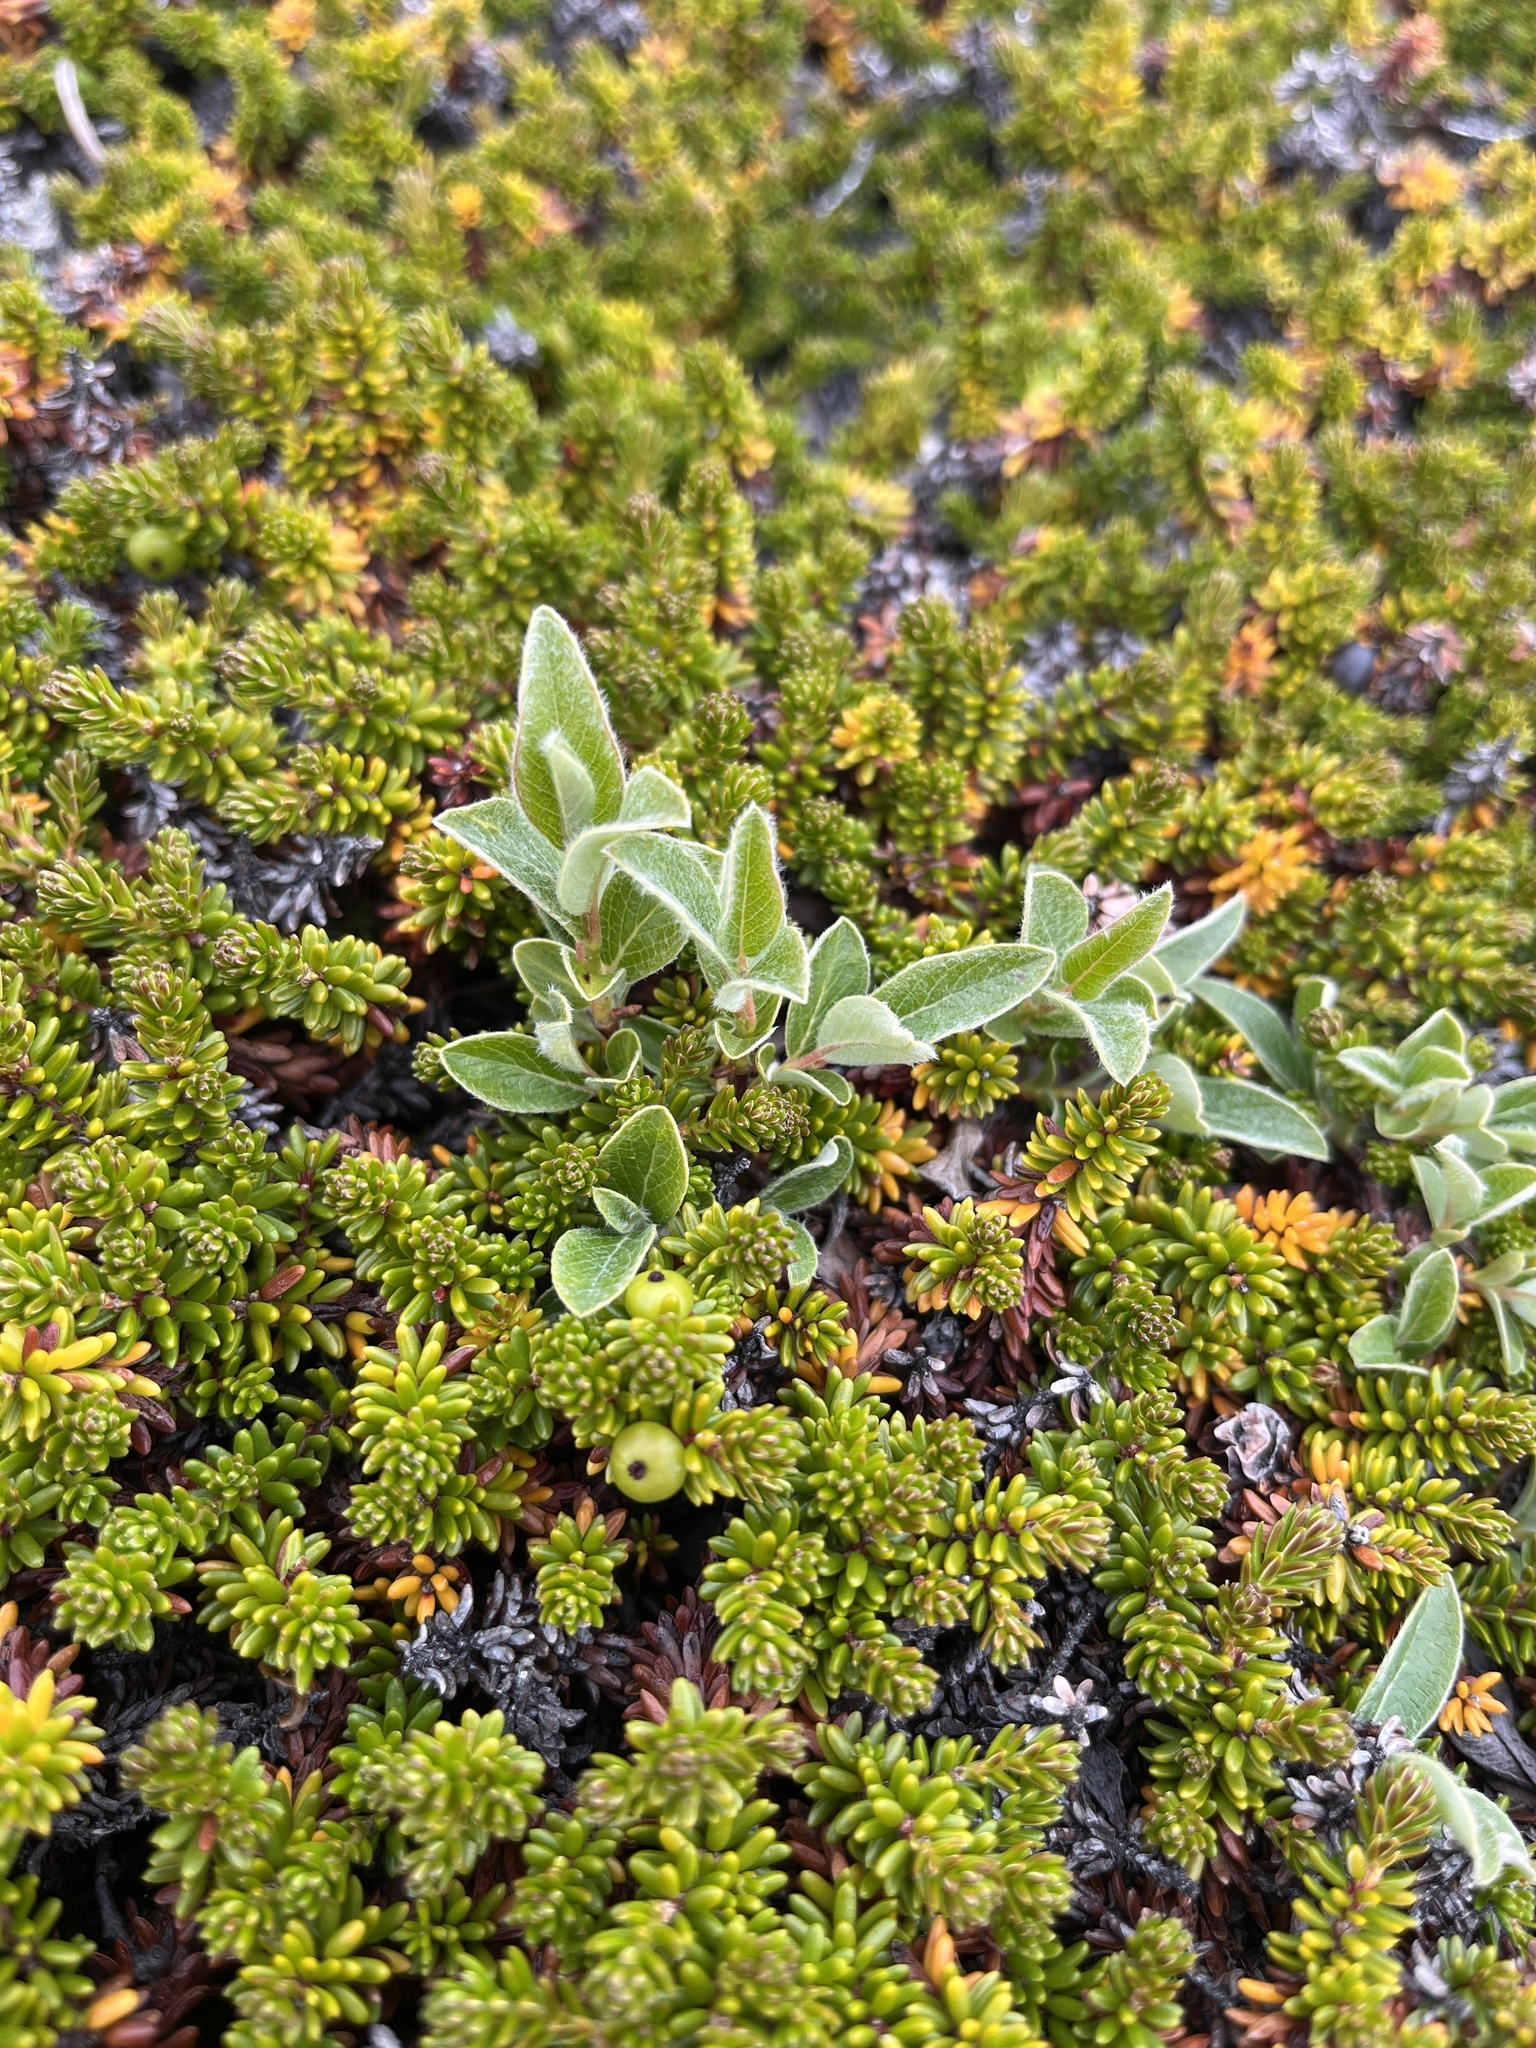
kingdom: Plantae
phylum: Tracheophyta
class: Magnoliopsida
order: Malpighiales
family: Salicaceae
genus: Salix
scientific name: Salix glauca
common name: Glaucous willow
